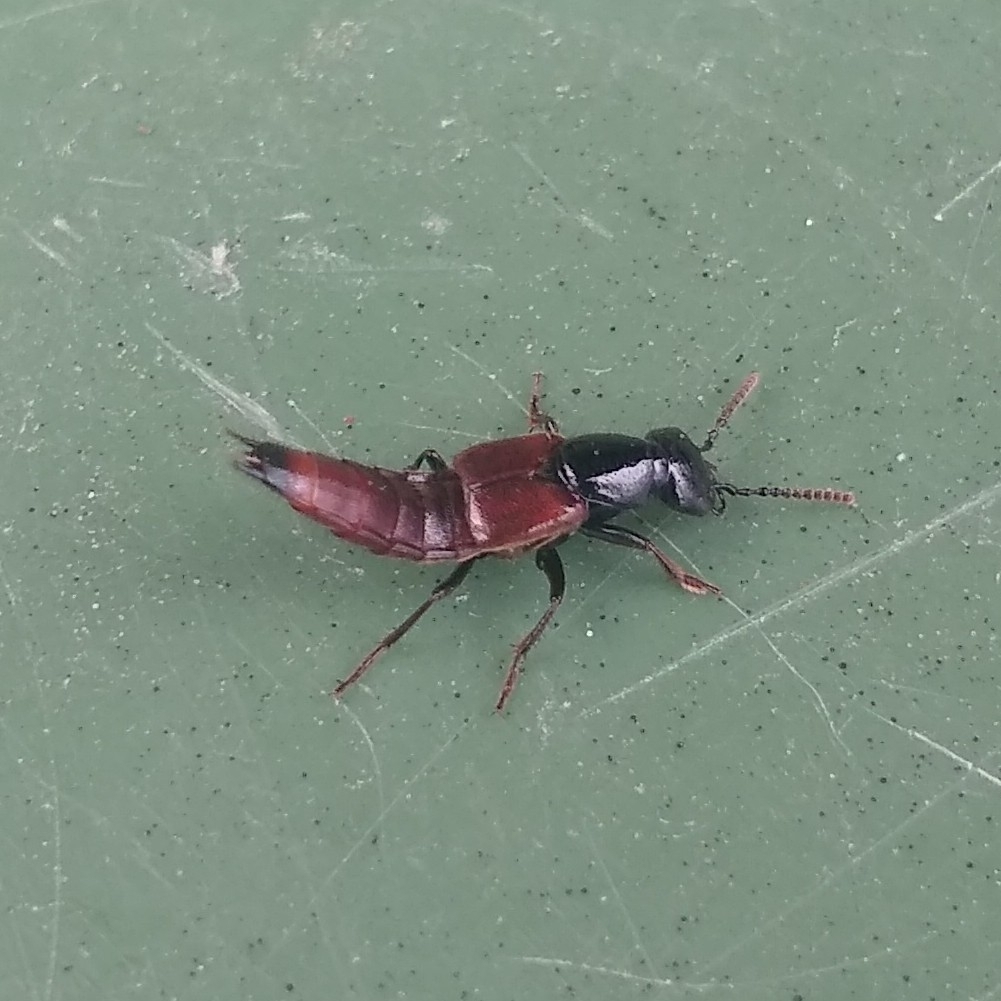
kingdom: Animalia
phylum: Arthropoda
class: Insecta
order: Coleoptera
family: Staphylinidae
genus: Hesperus
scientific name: Hesperus baltimorensis
